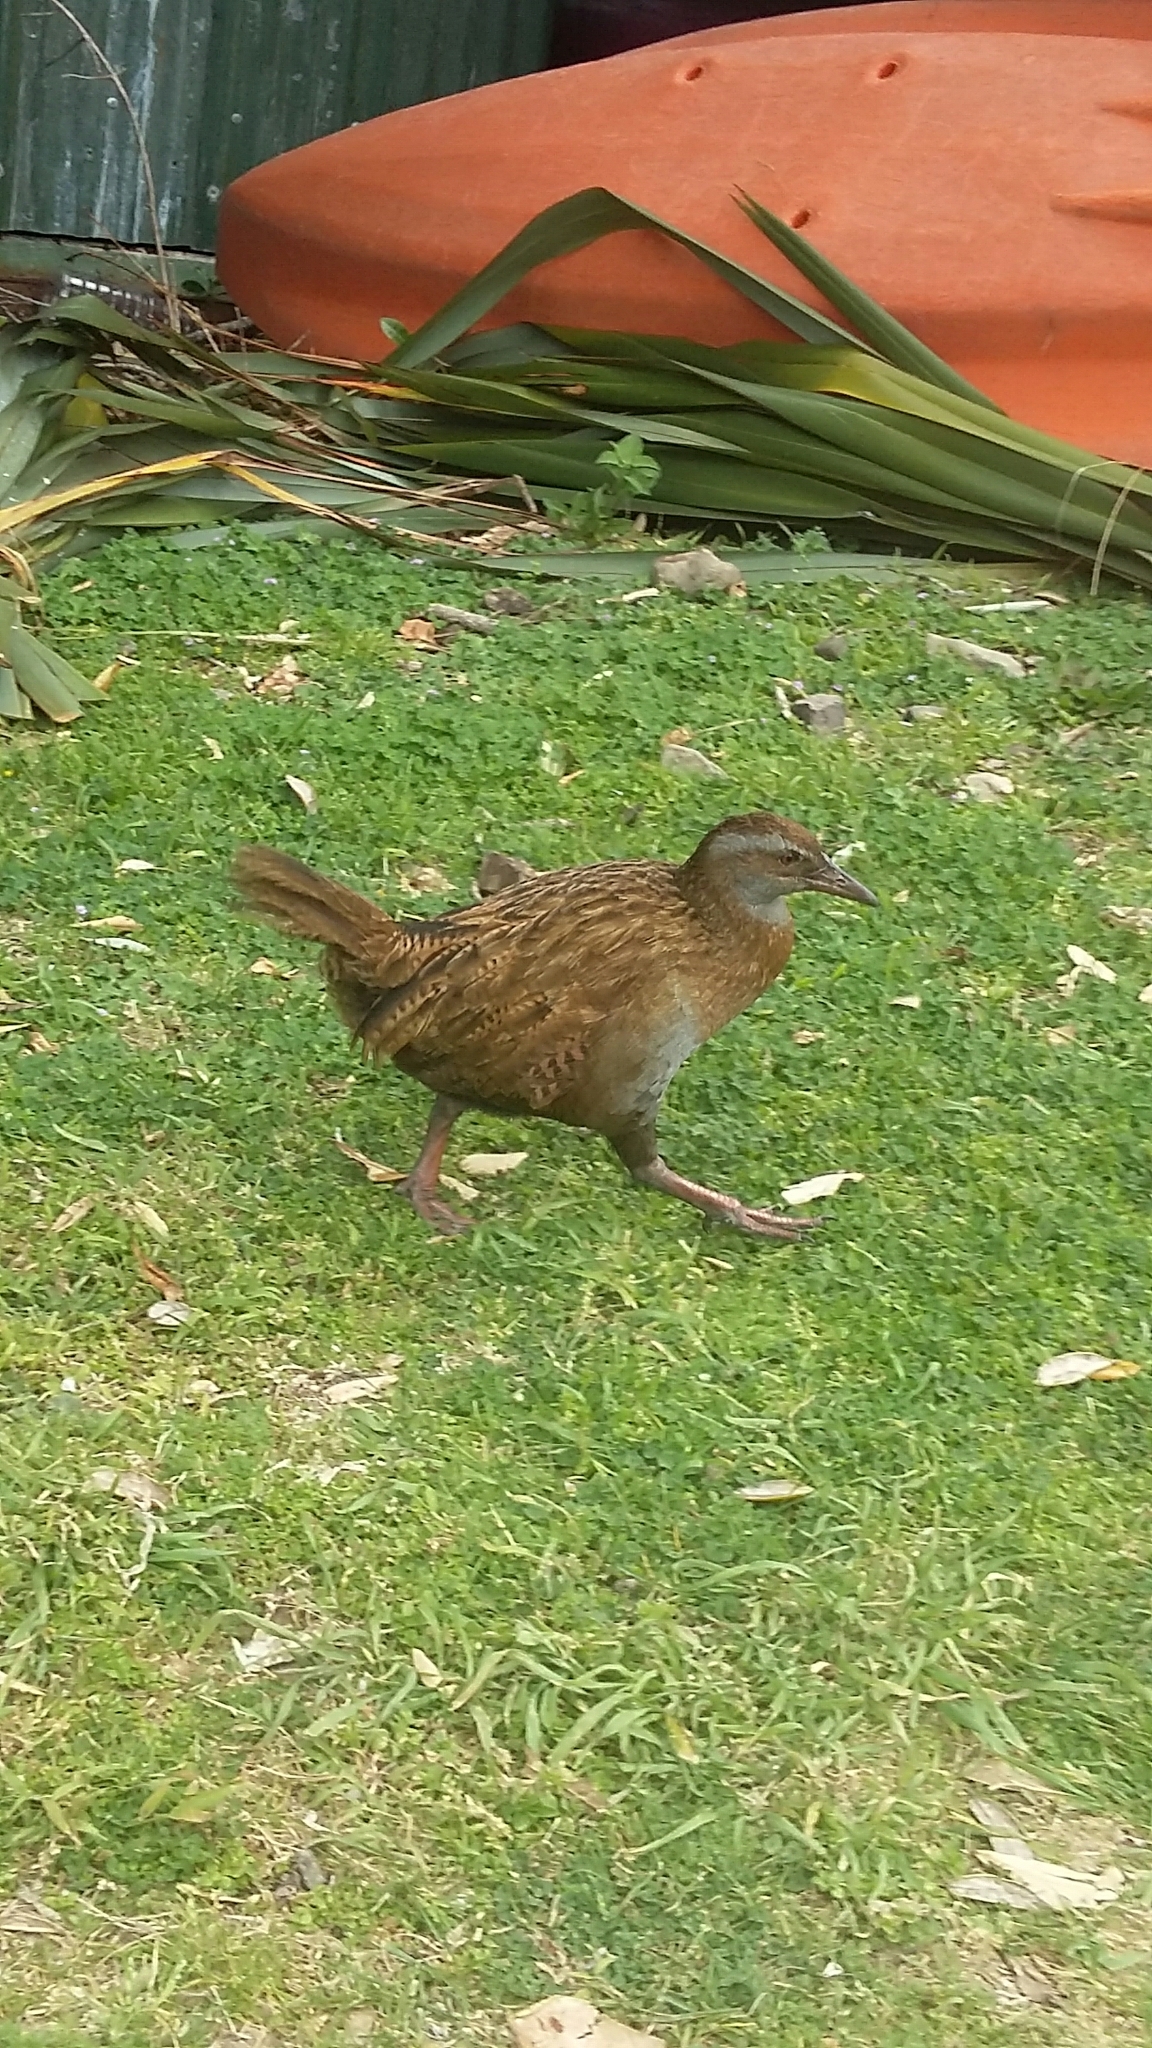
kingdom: Animalia
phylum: Chordata
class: Aves
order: Gruiformes
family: Rallidae
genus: Gallirallus
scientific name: Gallirallus australis
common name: Weka
